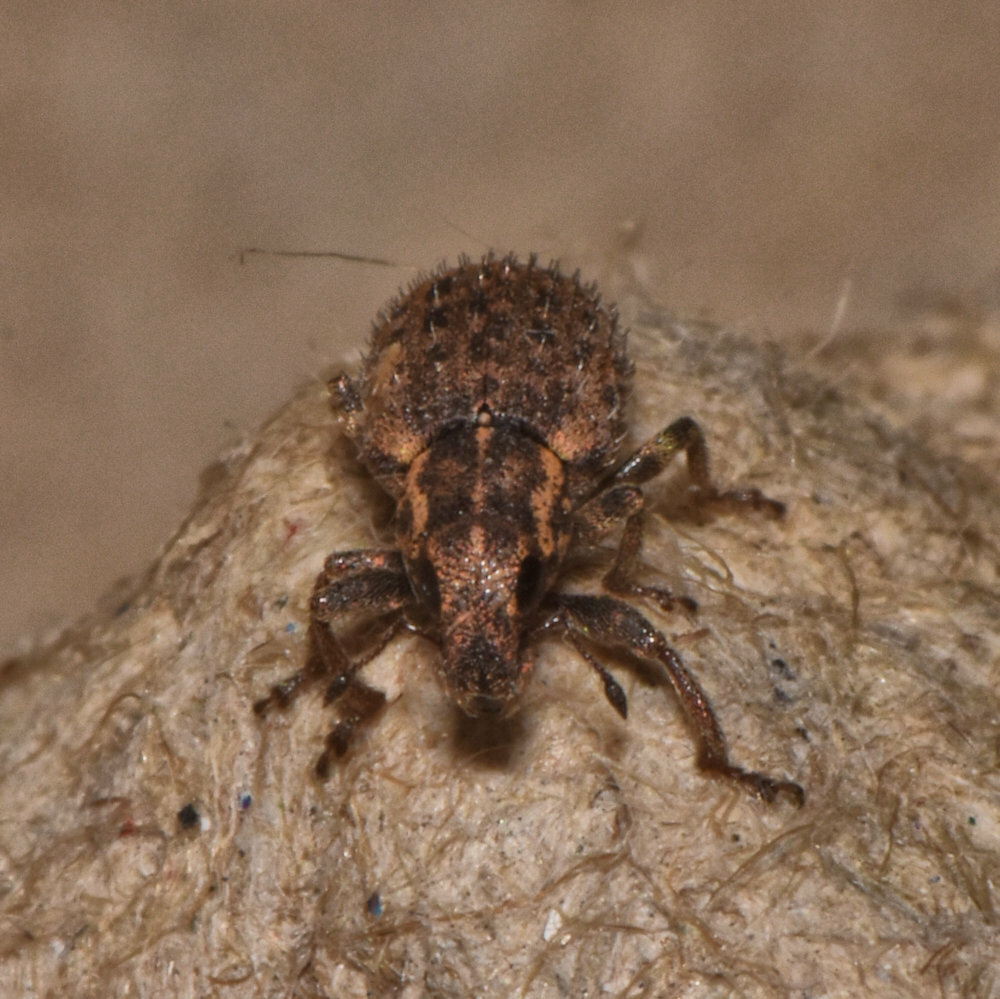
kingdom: Animalia
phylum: Arthropoda
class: Insecta
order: Coleoptera
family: Curculionidae
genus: Sitona
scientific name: Sitona hispidulus
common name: Clover weevil
